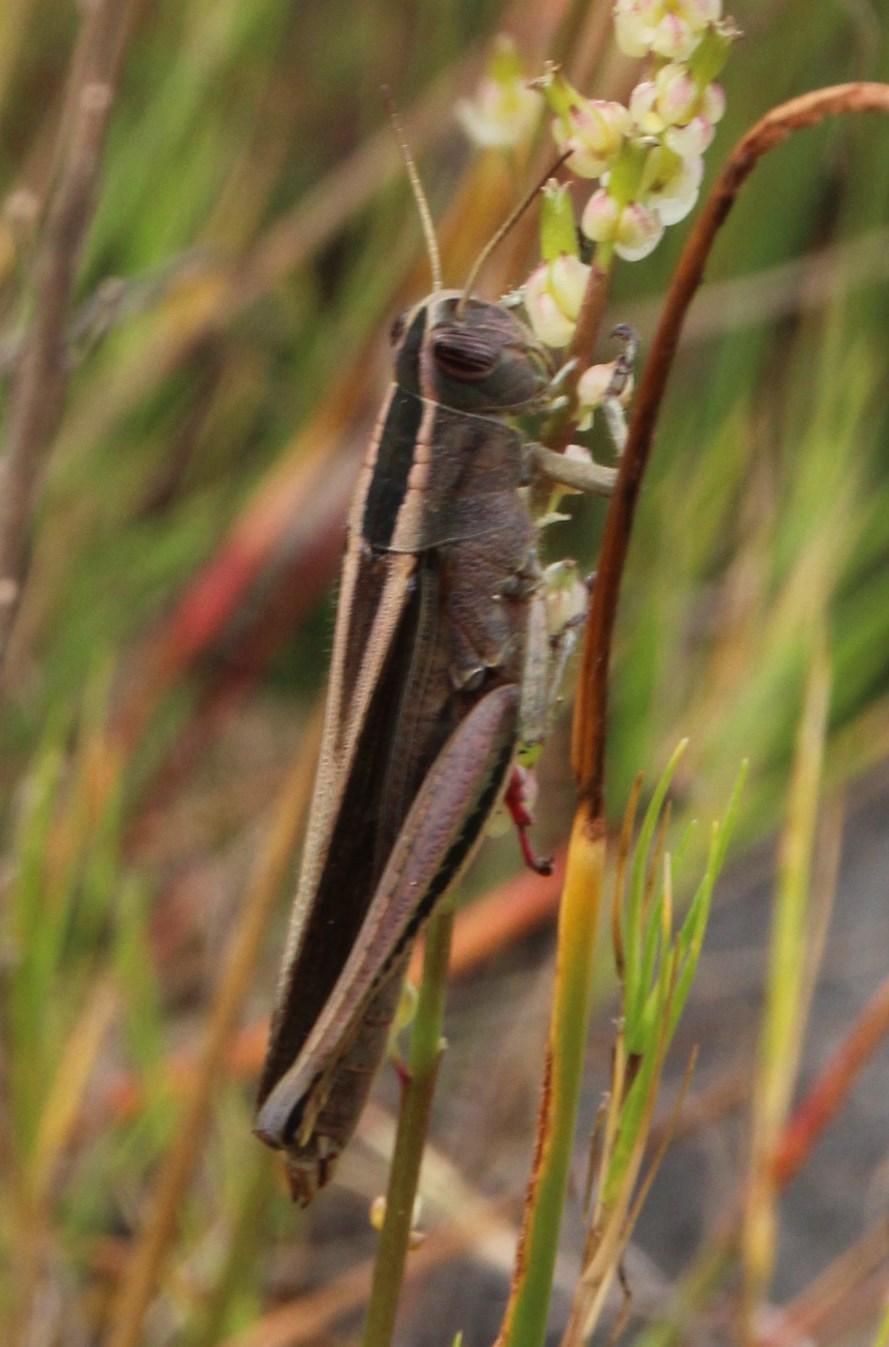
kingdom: Animalia
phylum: Arthropoda
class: Insecta
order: Orthoptera
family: Acrididae
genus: Eyprepocnemis
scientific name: Eyprepocnemis plorans
